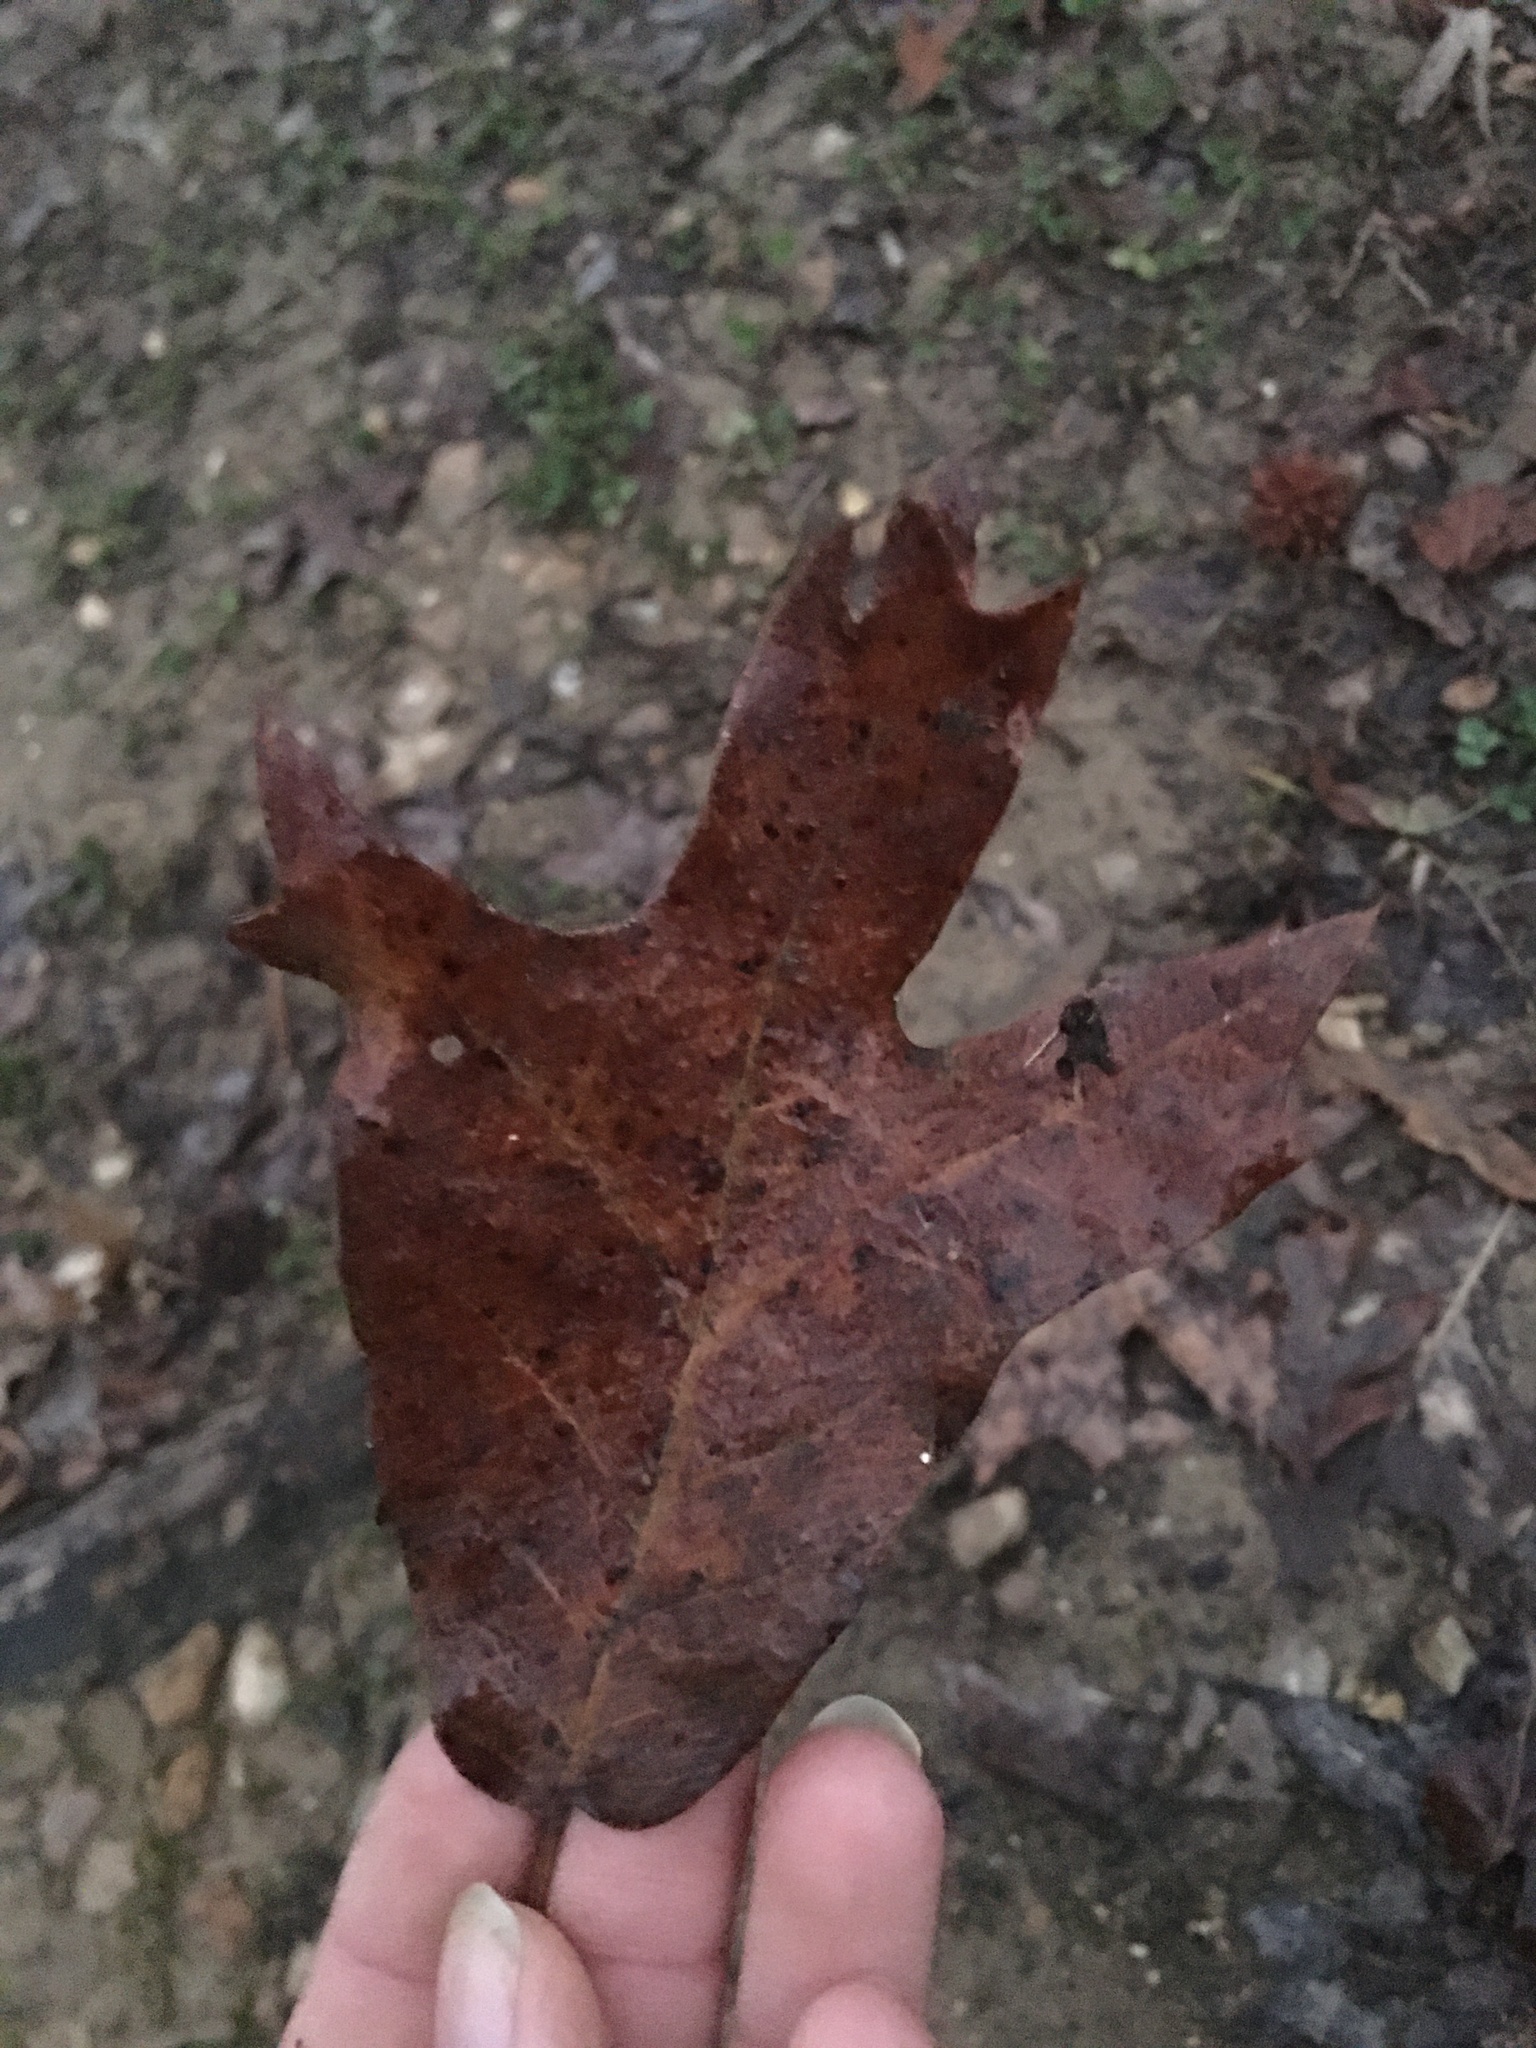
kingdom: Plantae
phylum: Tracheophyta
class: Magnoliopsida
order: Fagales
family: Fagaceae
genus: Quercus
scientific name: Quercus falcata
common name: Southern red oak
